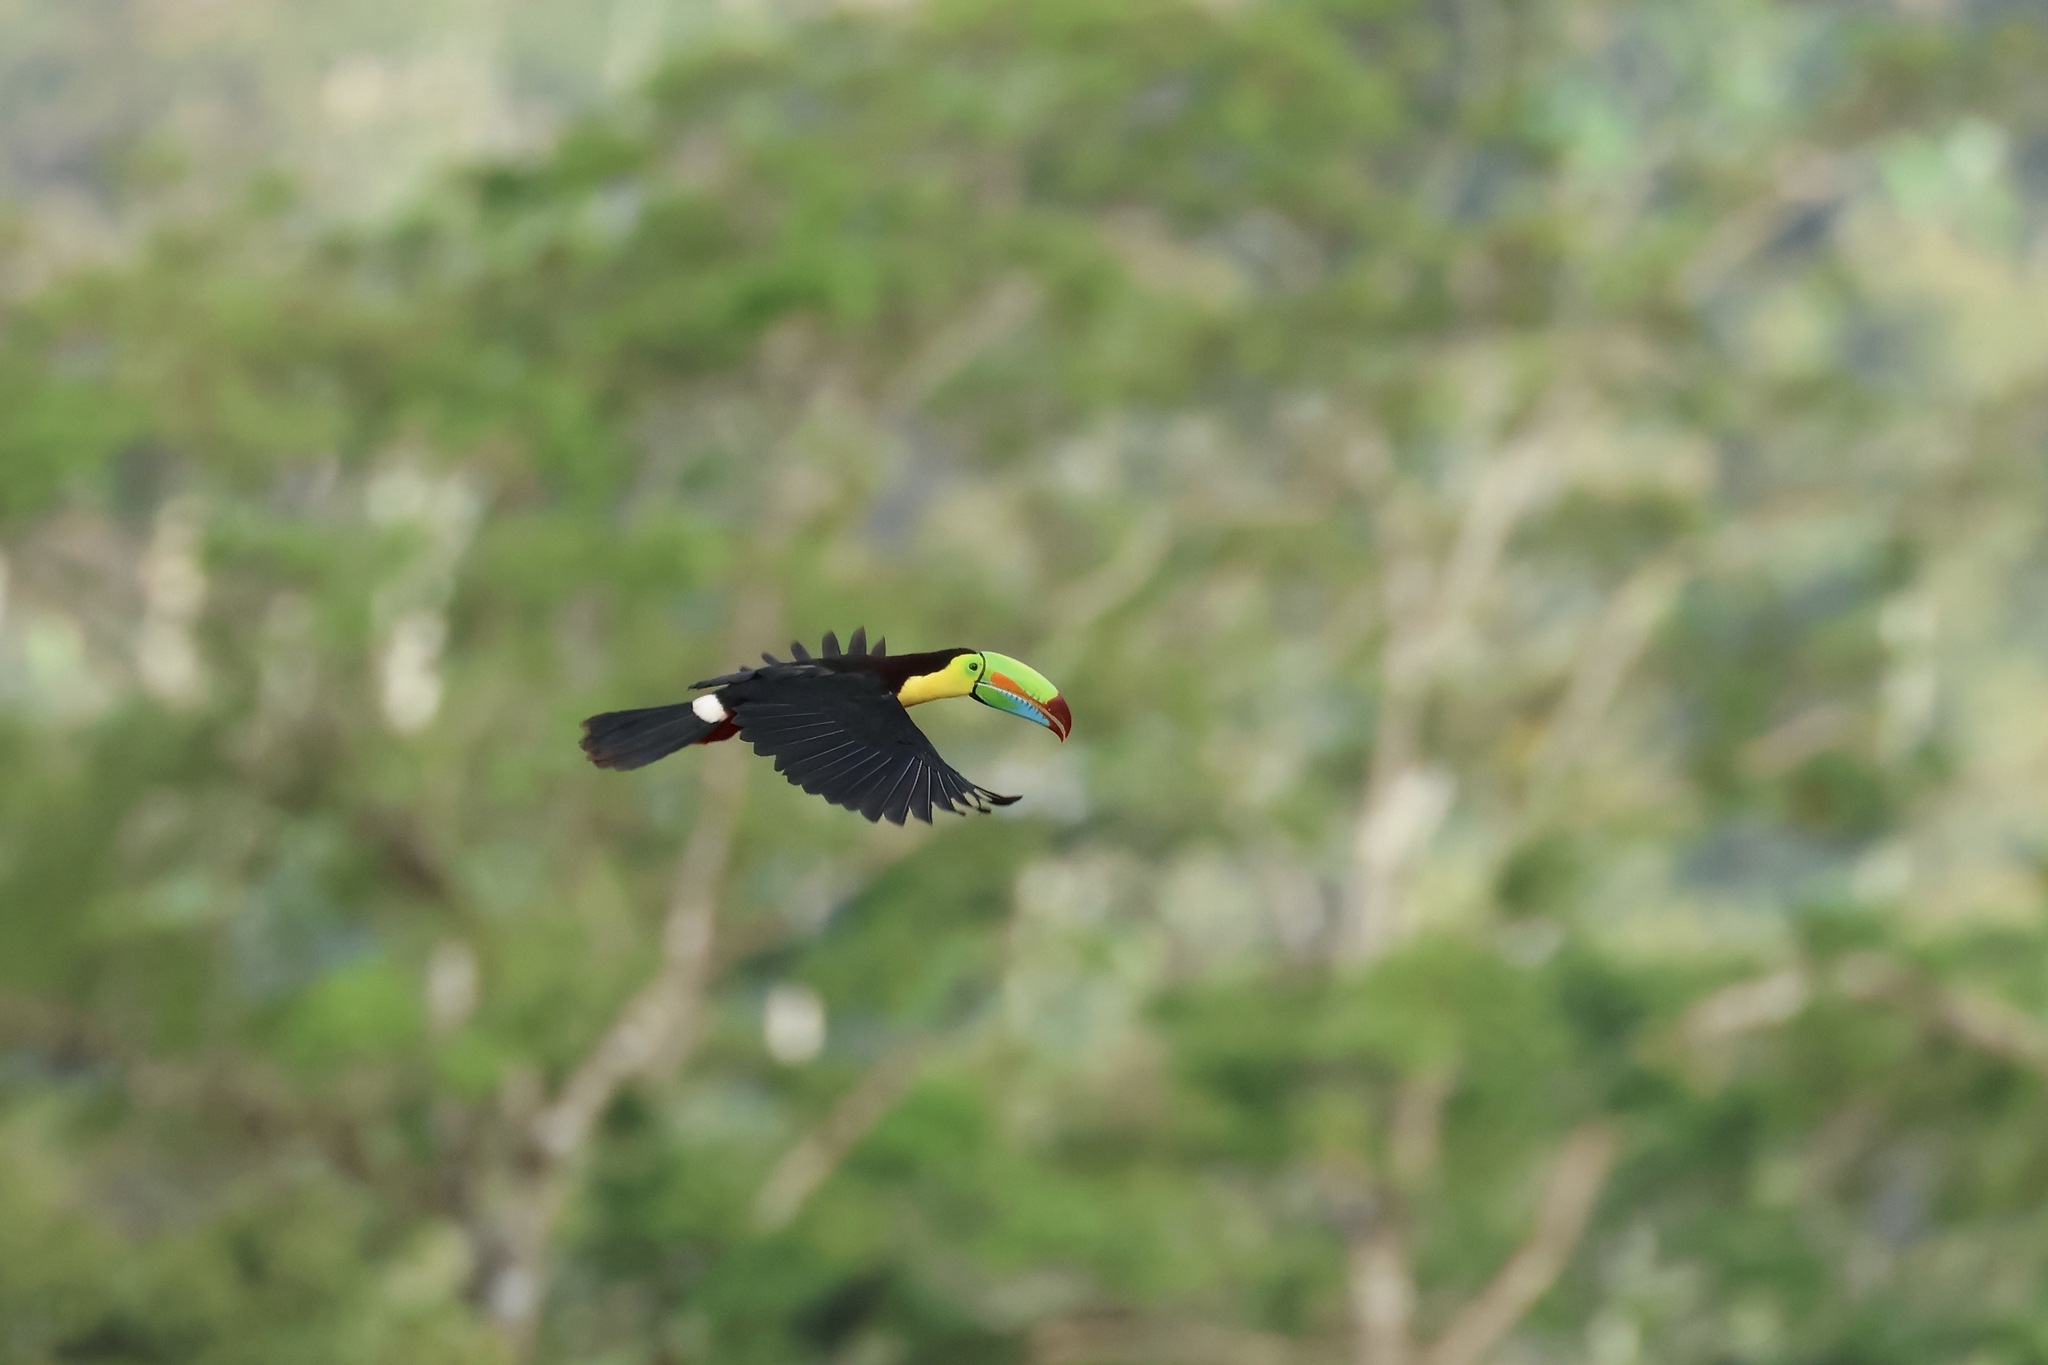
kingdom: Animalia
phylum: Chordata
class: Aves
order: Piciformes
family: Ramphastidae
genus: Ramphastos
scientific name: Ramphastos sulfuratus
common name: Keel-billed toucan
